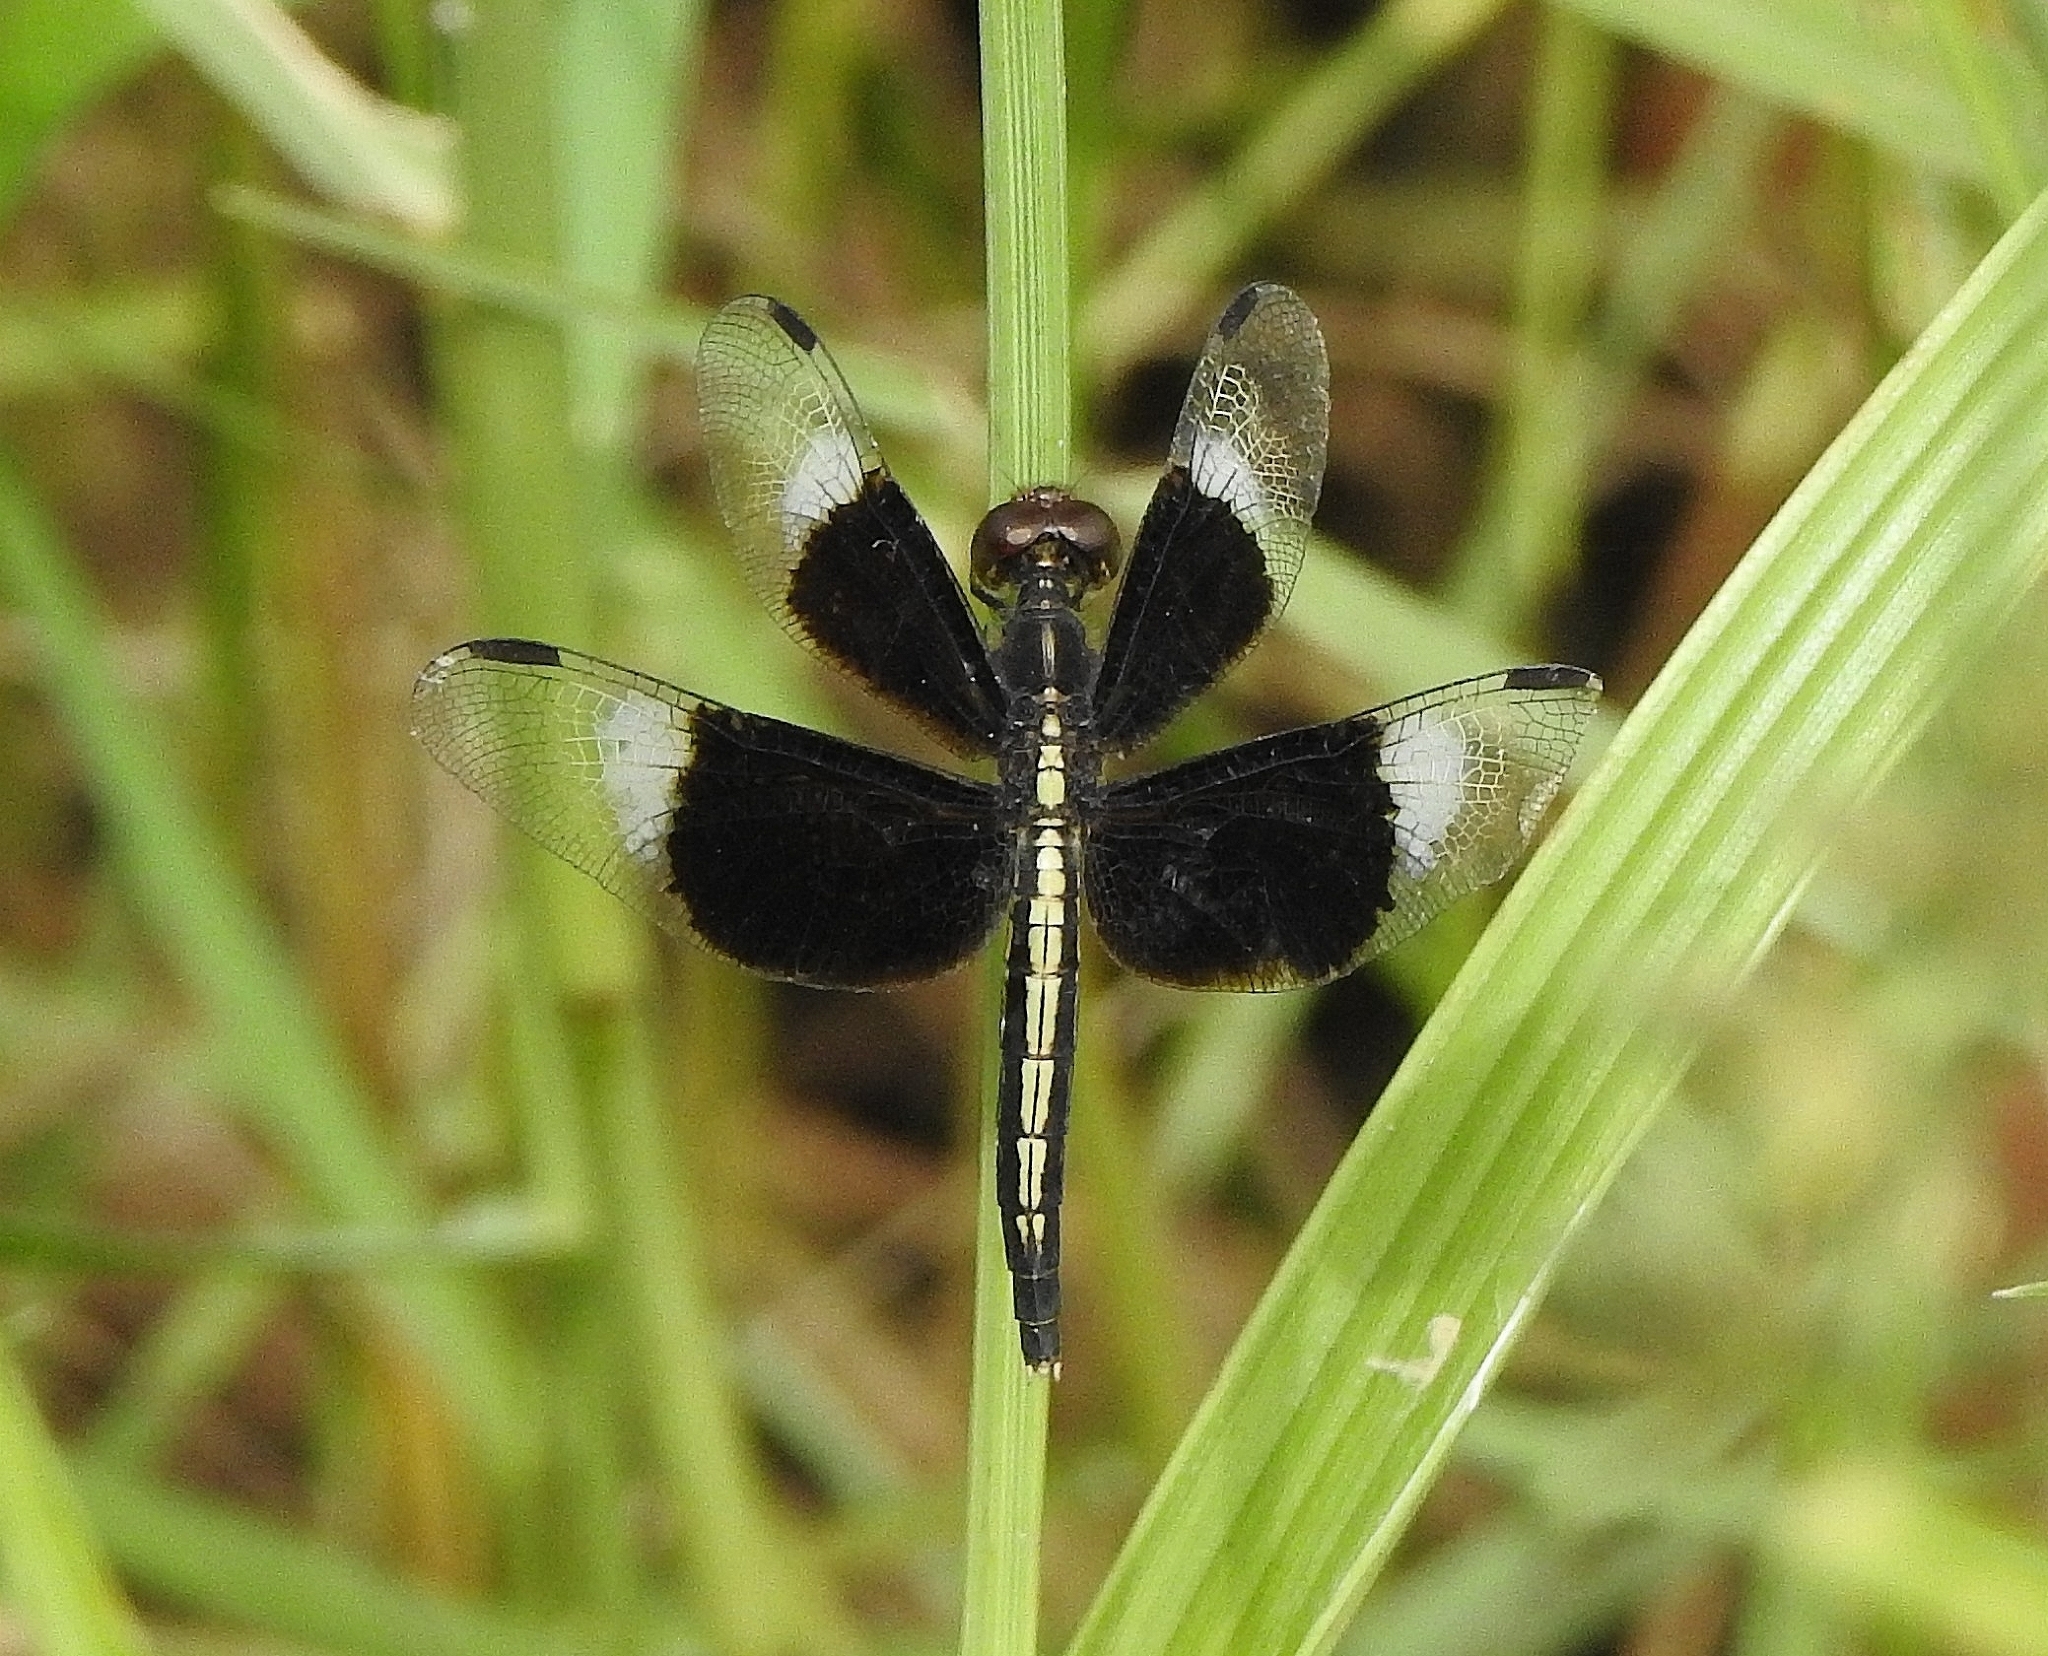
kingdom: Animalia
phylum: Arthropoda
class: Insecta
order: Odonata
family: Libellulidae
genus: Neurothemis
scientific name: Neurothemis tullia
